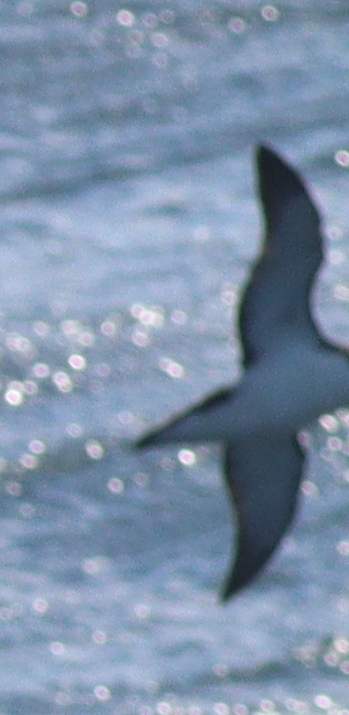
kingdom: Animalia
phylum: Chordata
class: Aves
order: Procellariiformes
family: Procellariidae
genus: Puffinus
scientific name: Puffinus puffinus
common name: Manx shearwater
